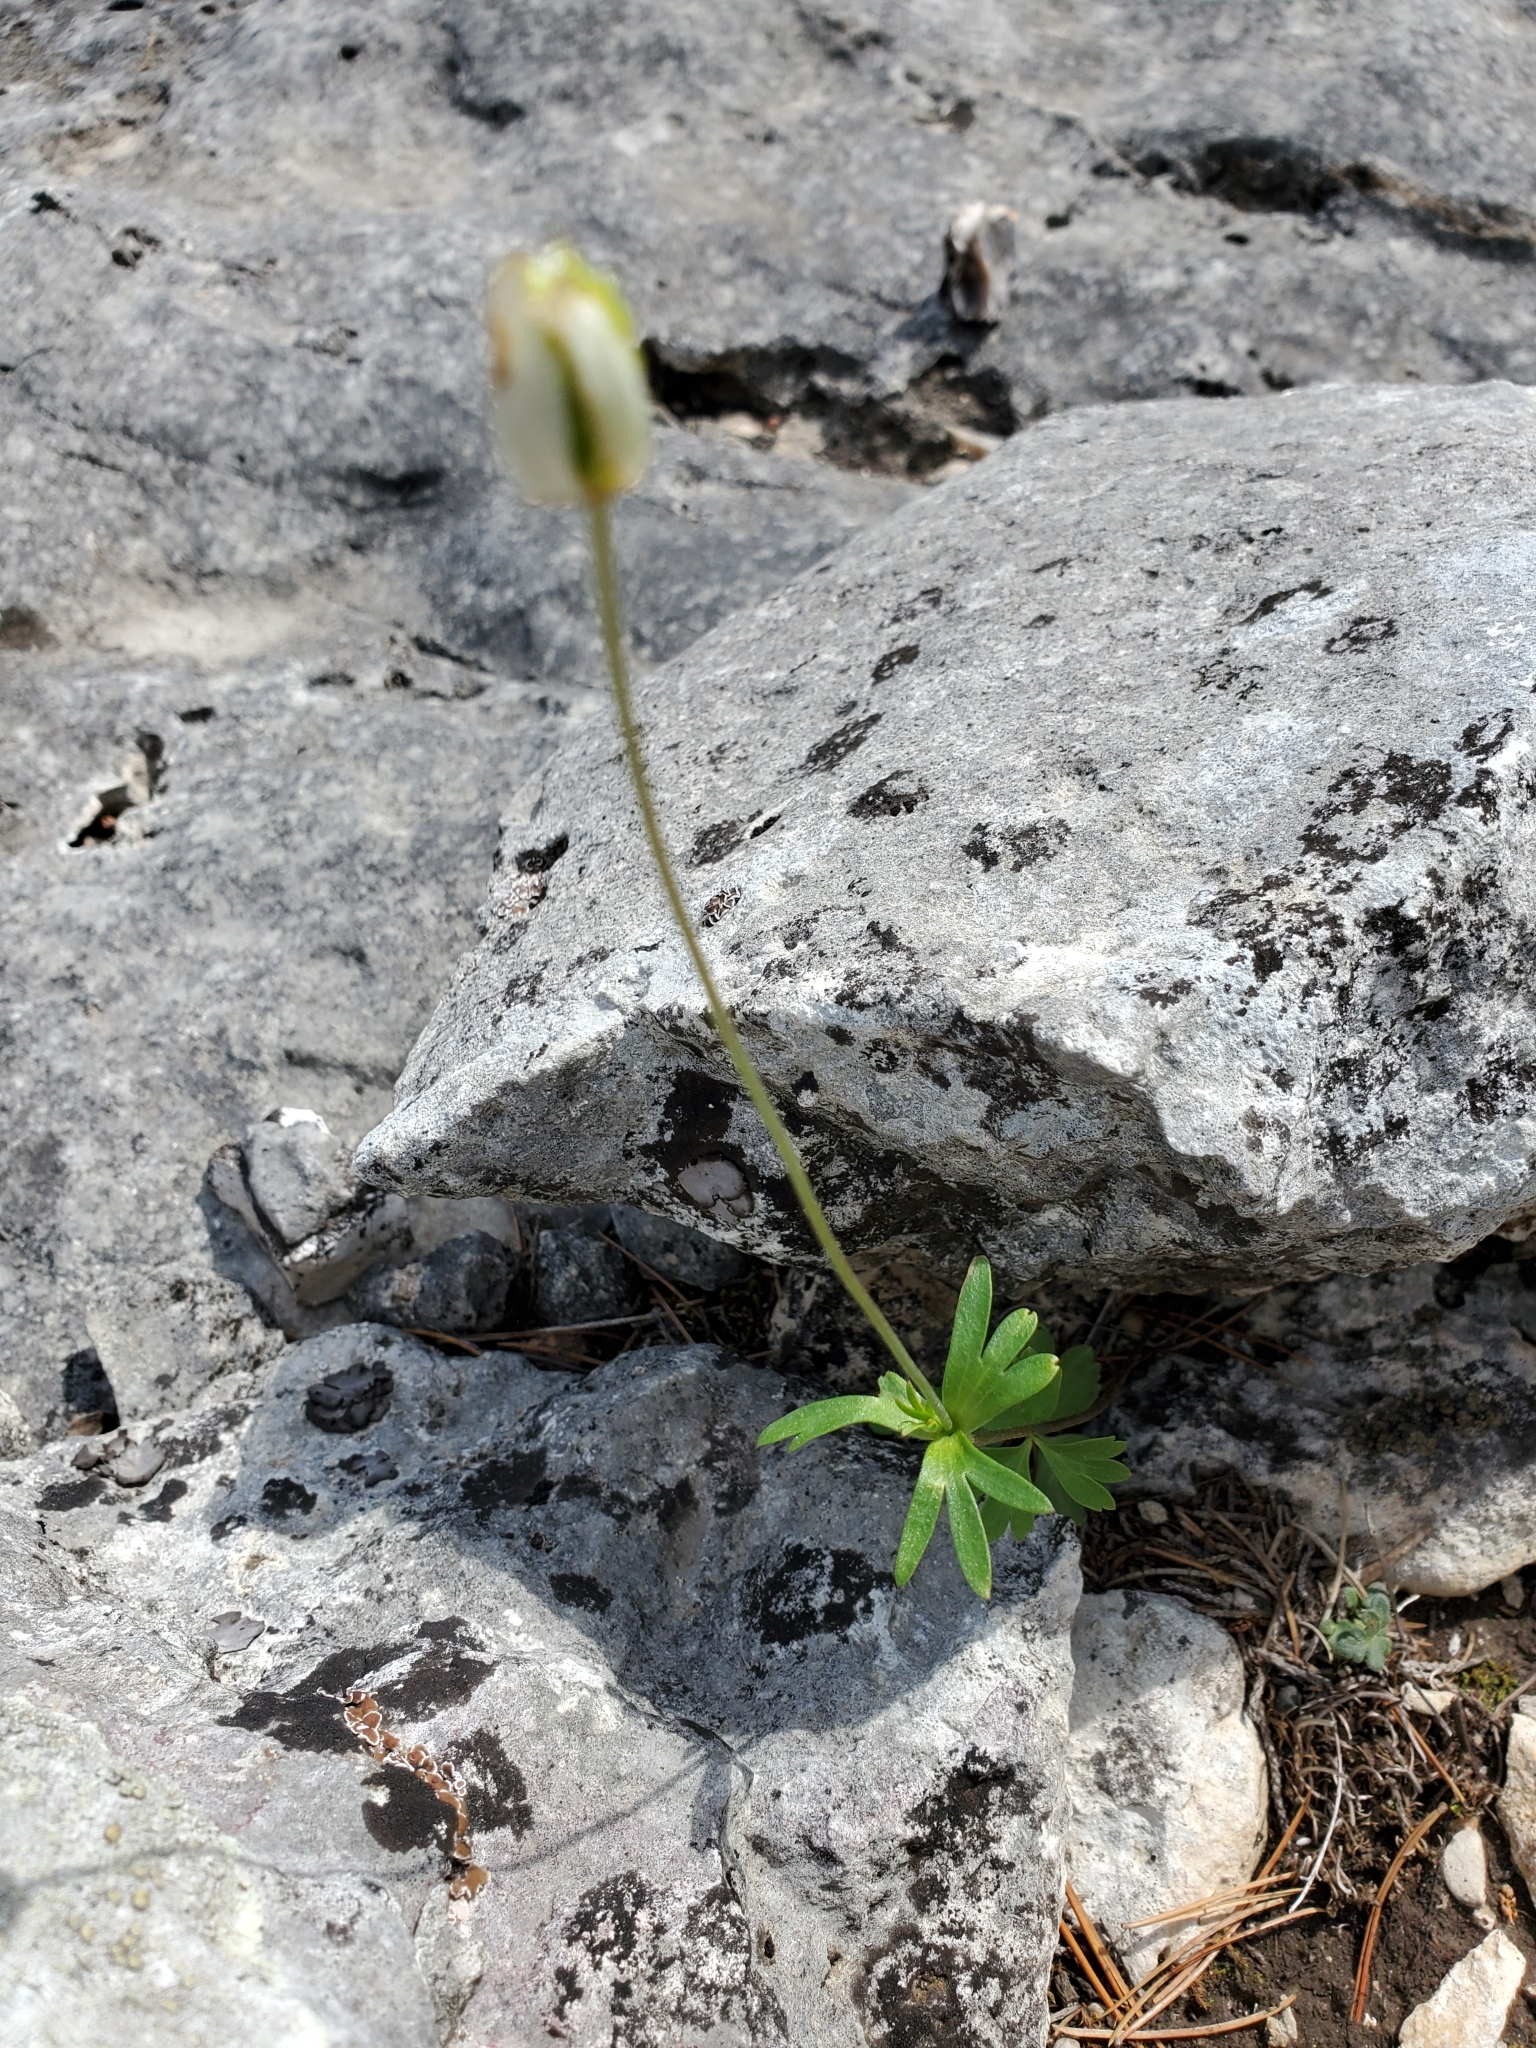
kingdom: Plantae
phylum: Tracheophyta
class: Magnoliopsida
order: Ranunculales
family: Ranunculaceae
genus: Anemone
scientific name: Anemone edwardsiana
